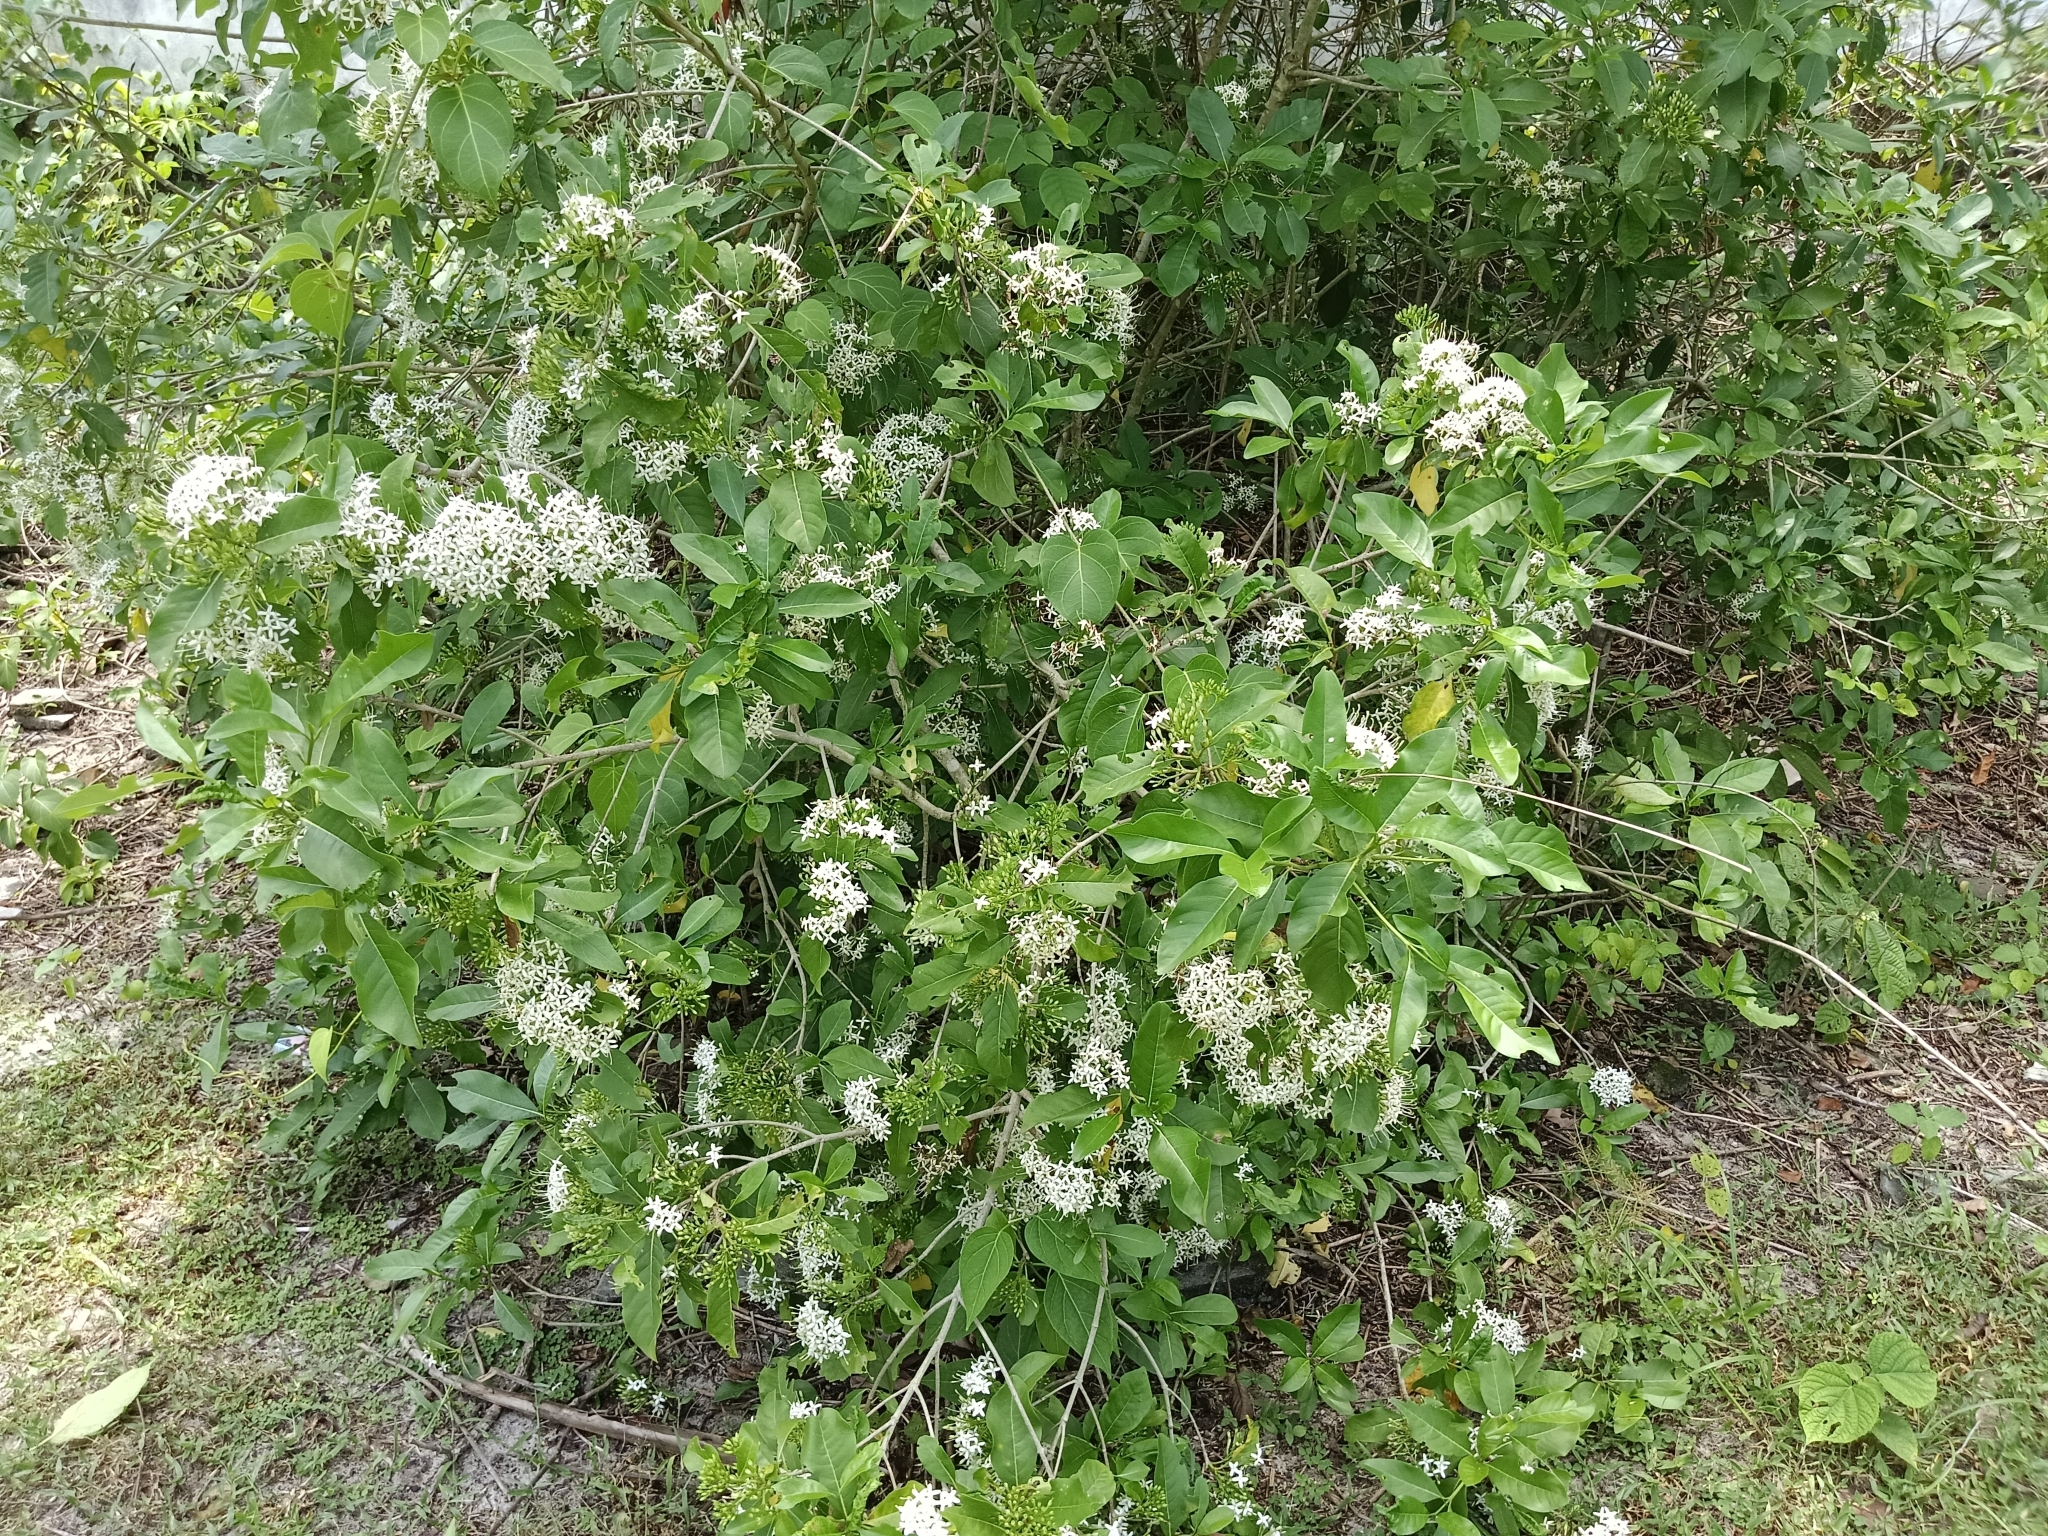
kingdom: Plantae
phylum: Tracheophyta
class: Magnoliopsida
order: Gentianales
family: Rubiaceae
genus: Pavetta
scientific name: Pavetta indica
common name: Indian pavetta
